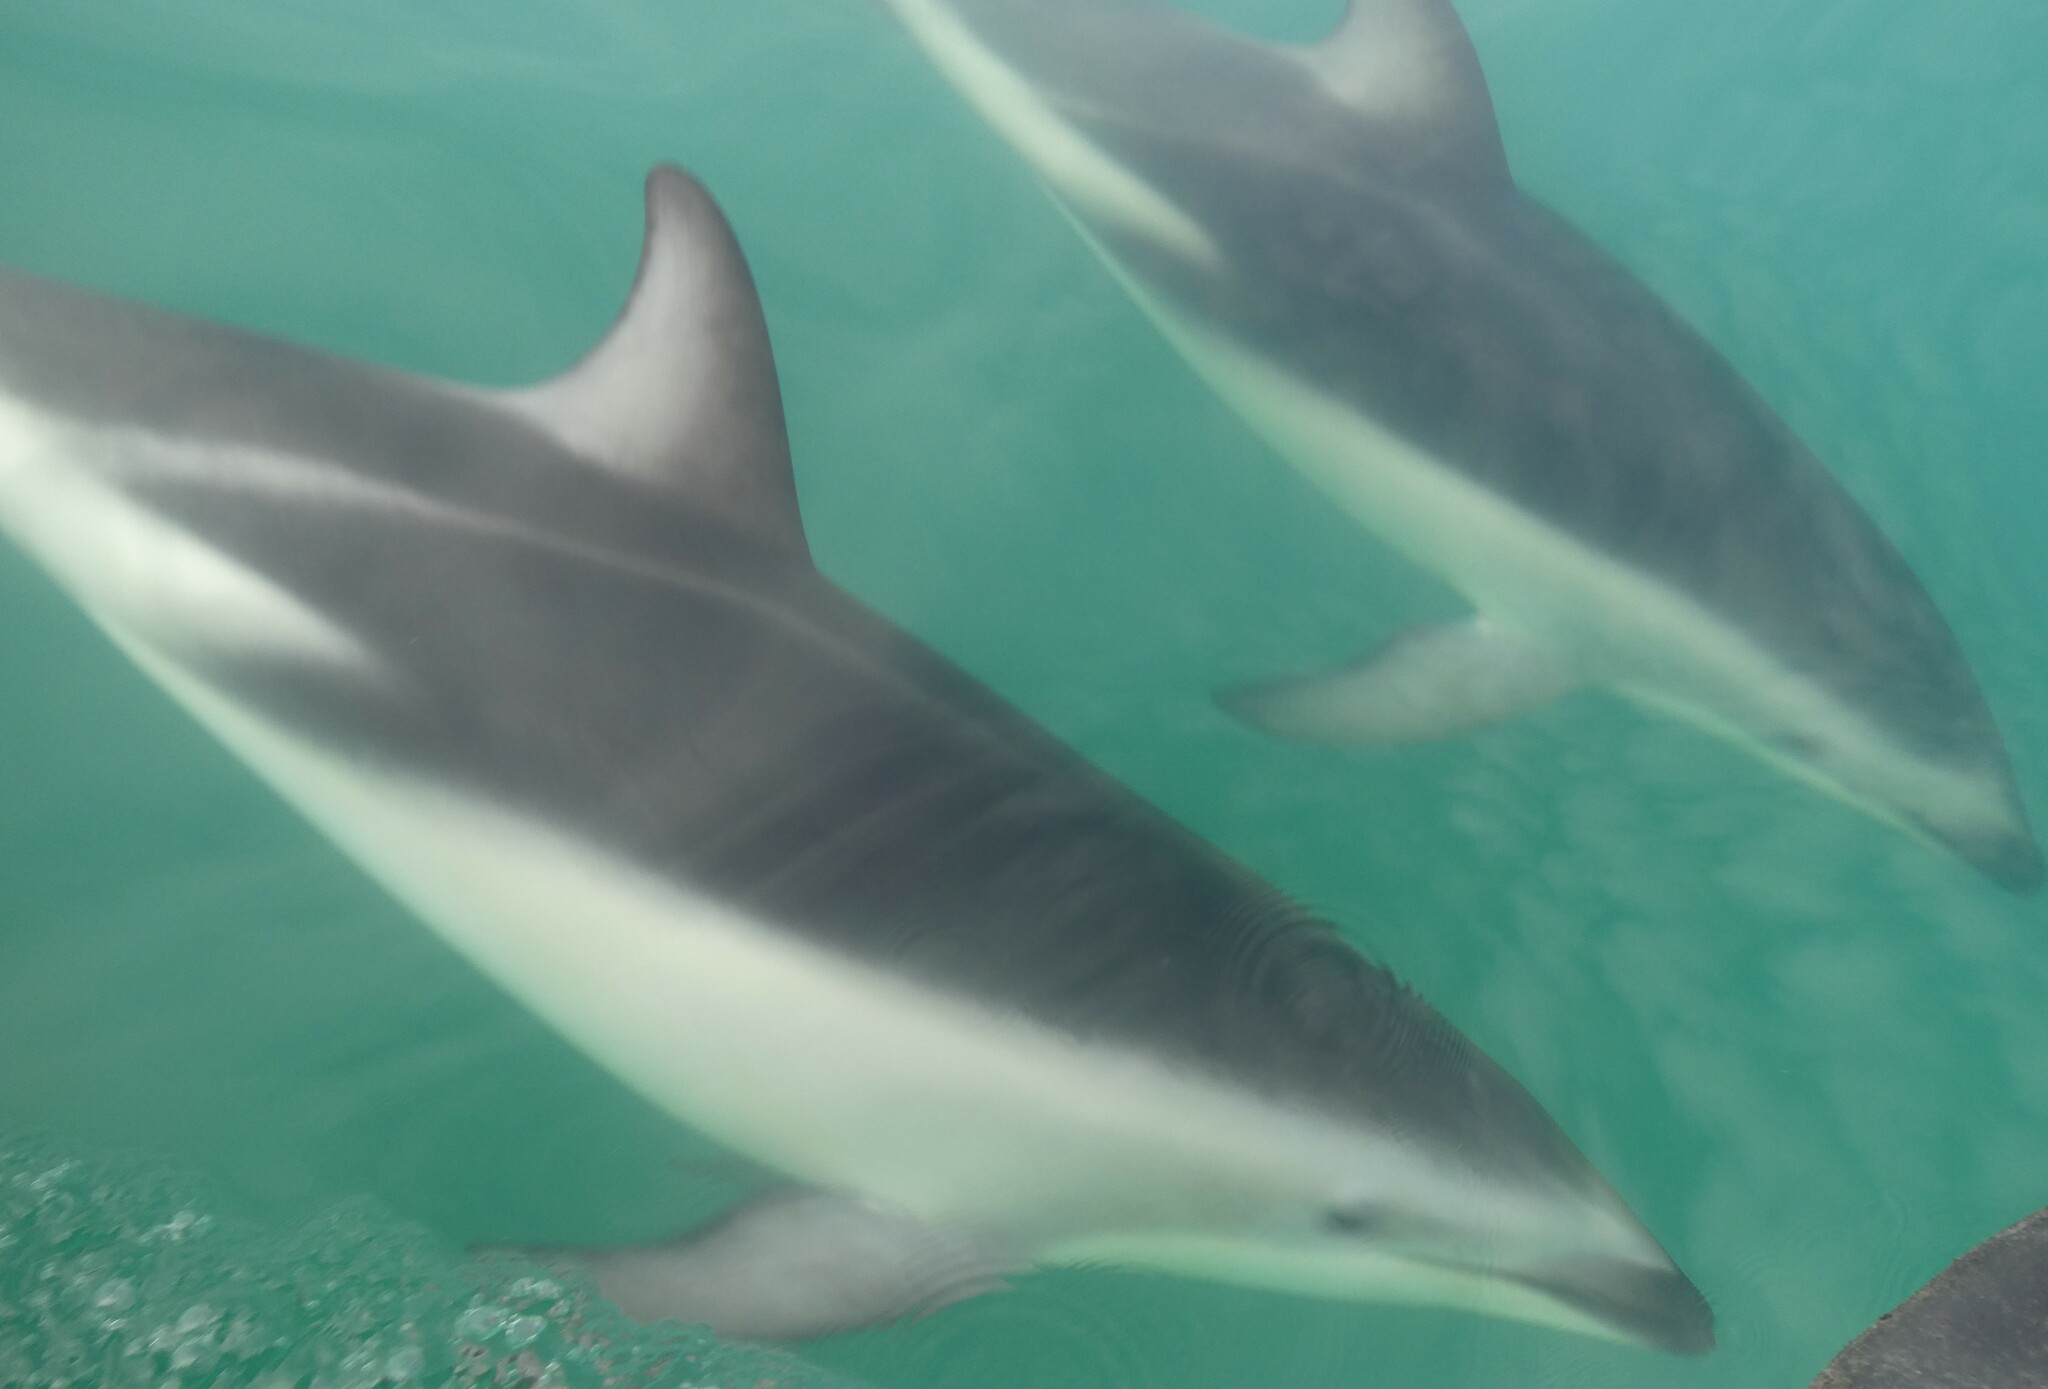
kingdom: Animalia
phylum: Chordata
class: Mammalia
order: Cetacea
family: Delphinidae
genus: Lagenorhynchus
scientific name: Lagenorhynchus obscurus
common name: Dusky dolphin
